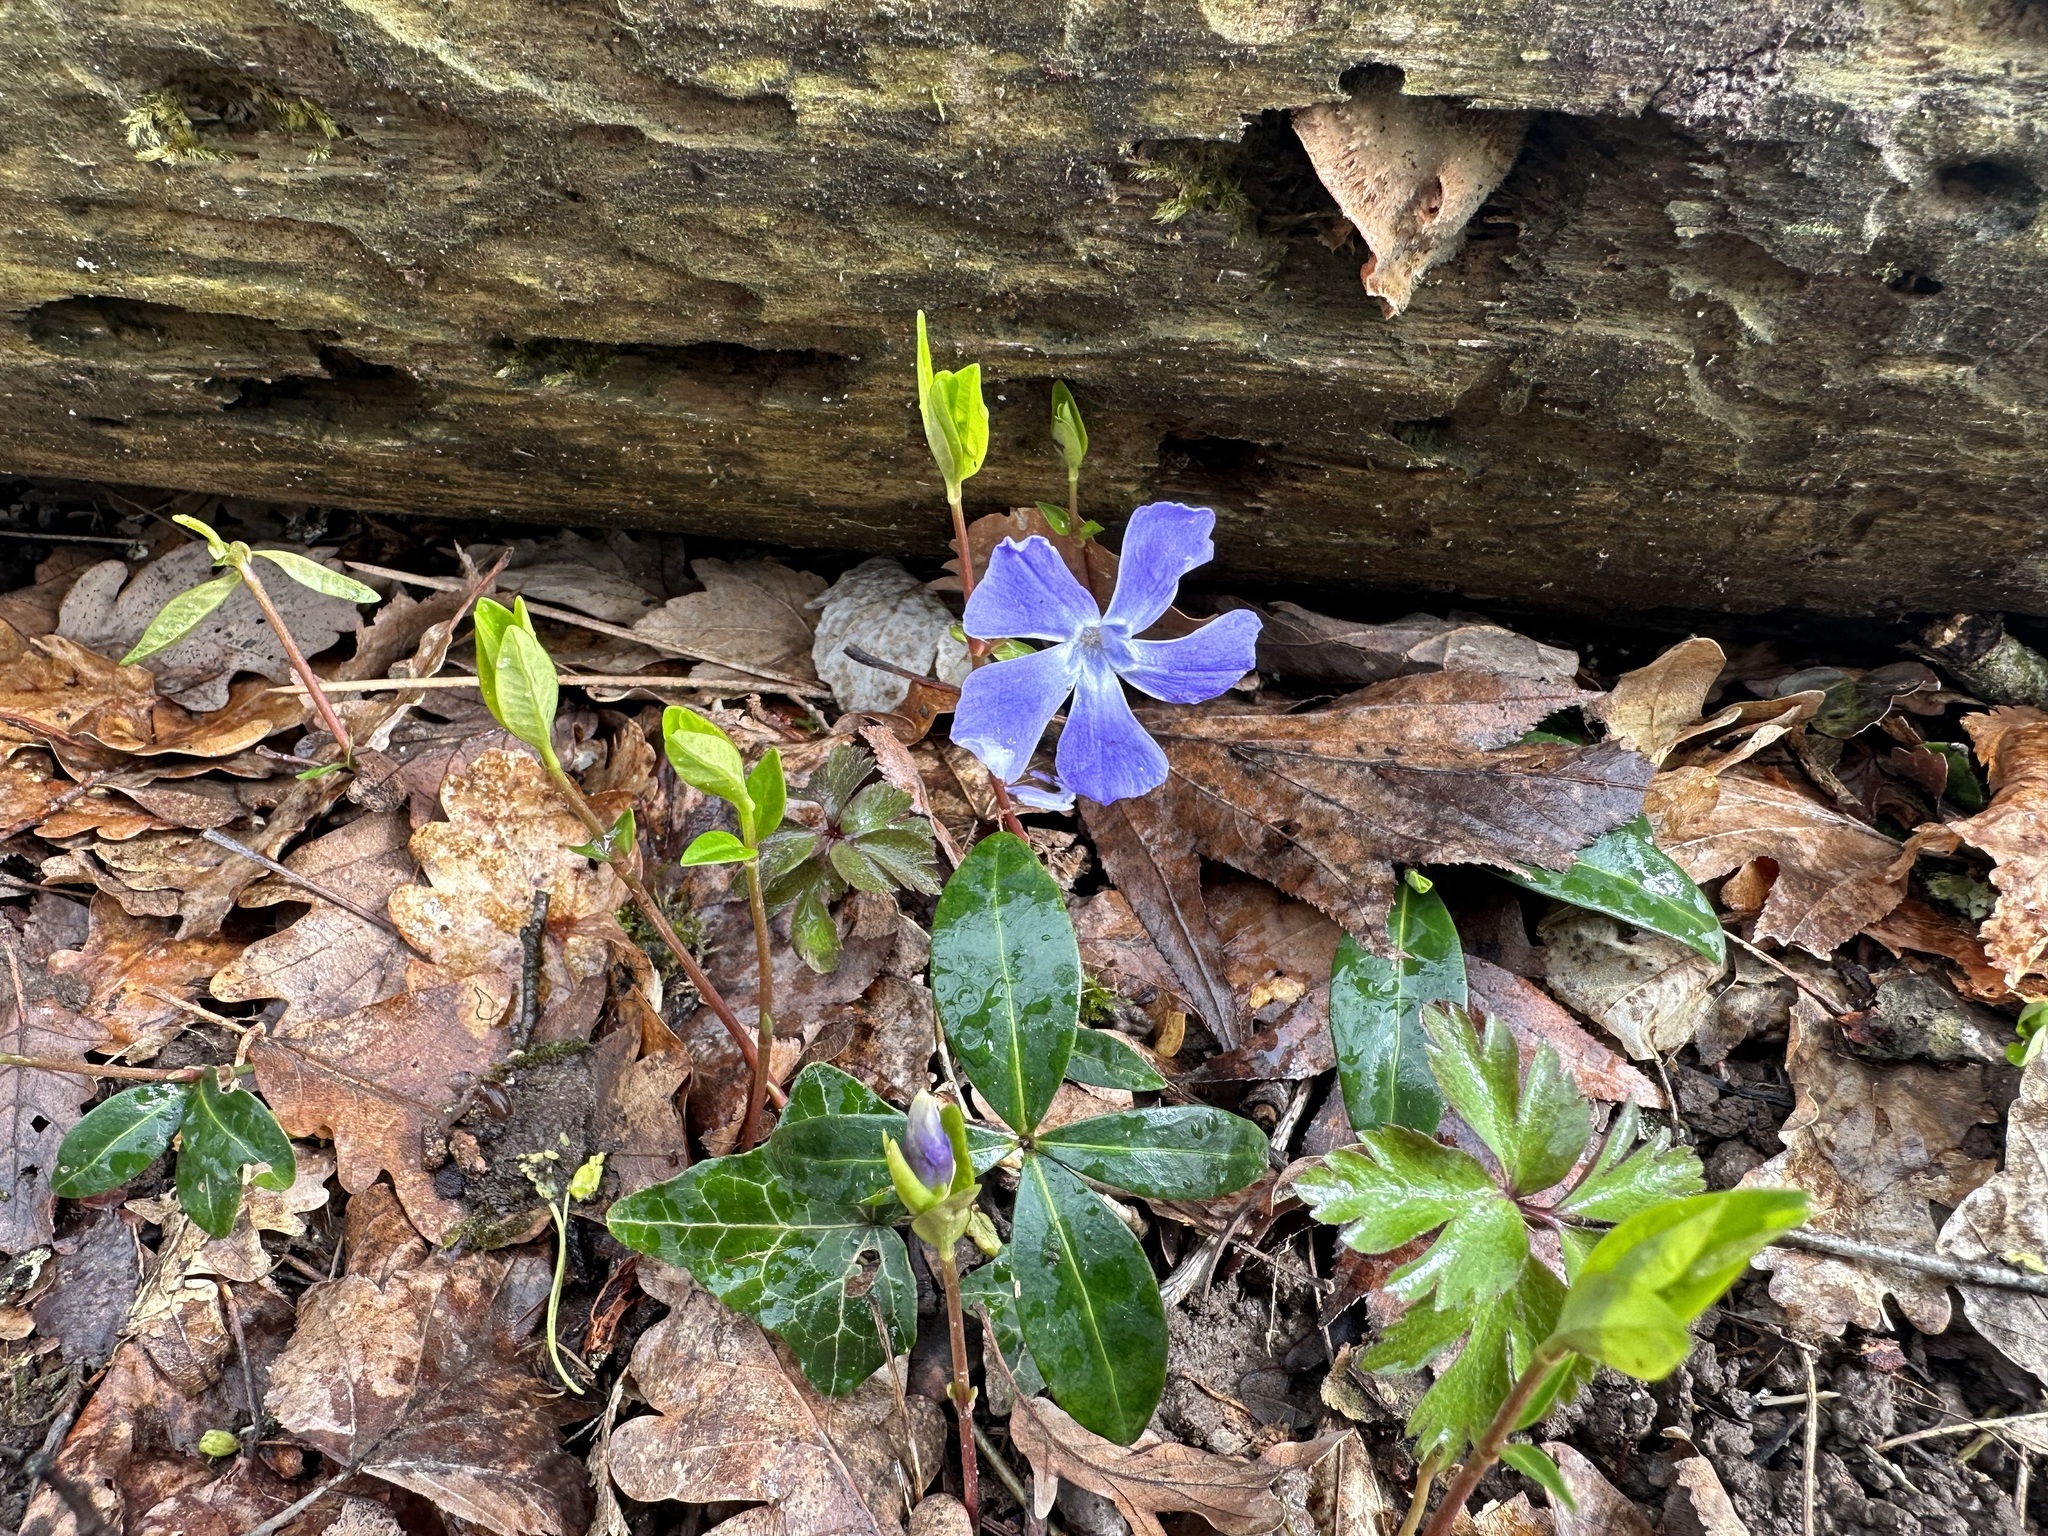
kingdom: Plantae
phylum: Tracheophyta
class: Magnoliopsida
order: Gentianales
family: Apocynaceae
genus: Vinca
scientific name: Vinca minor
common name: Lesser periwinkle
